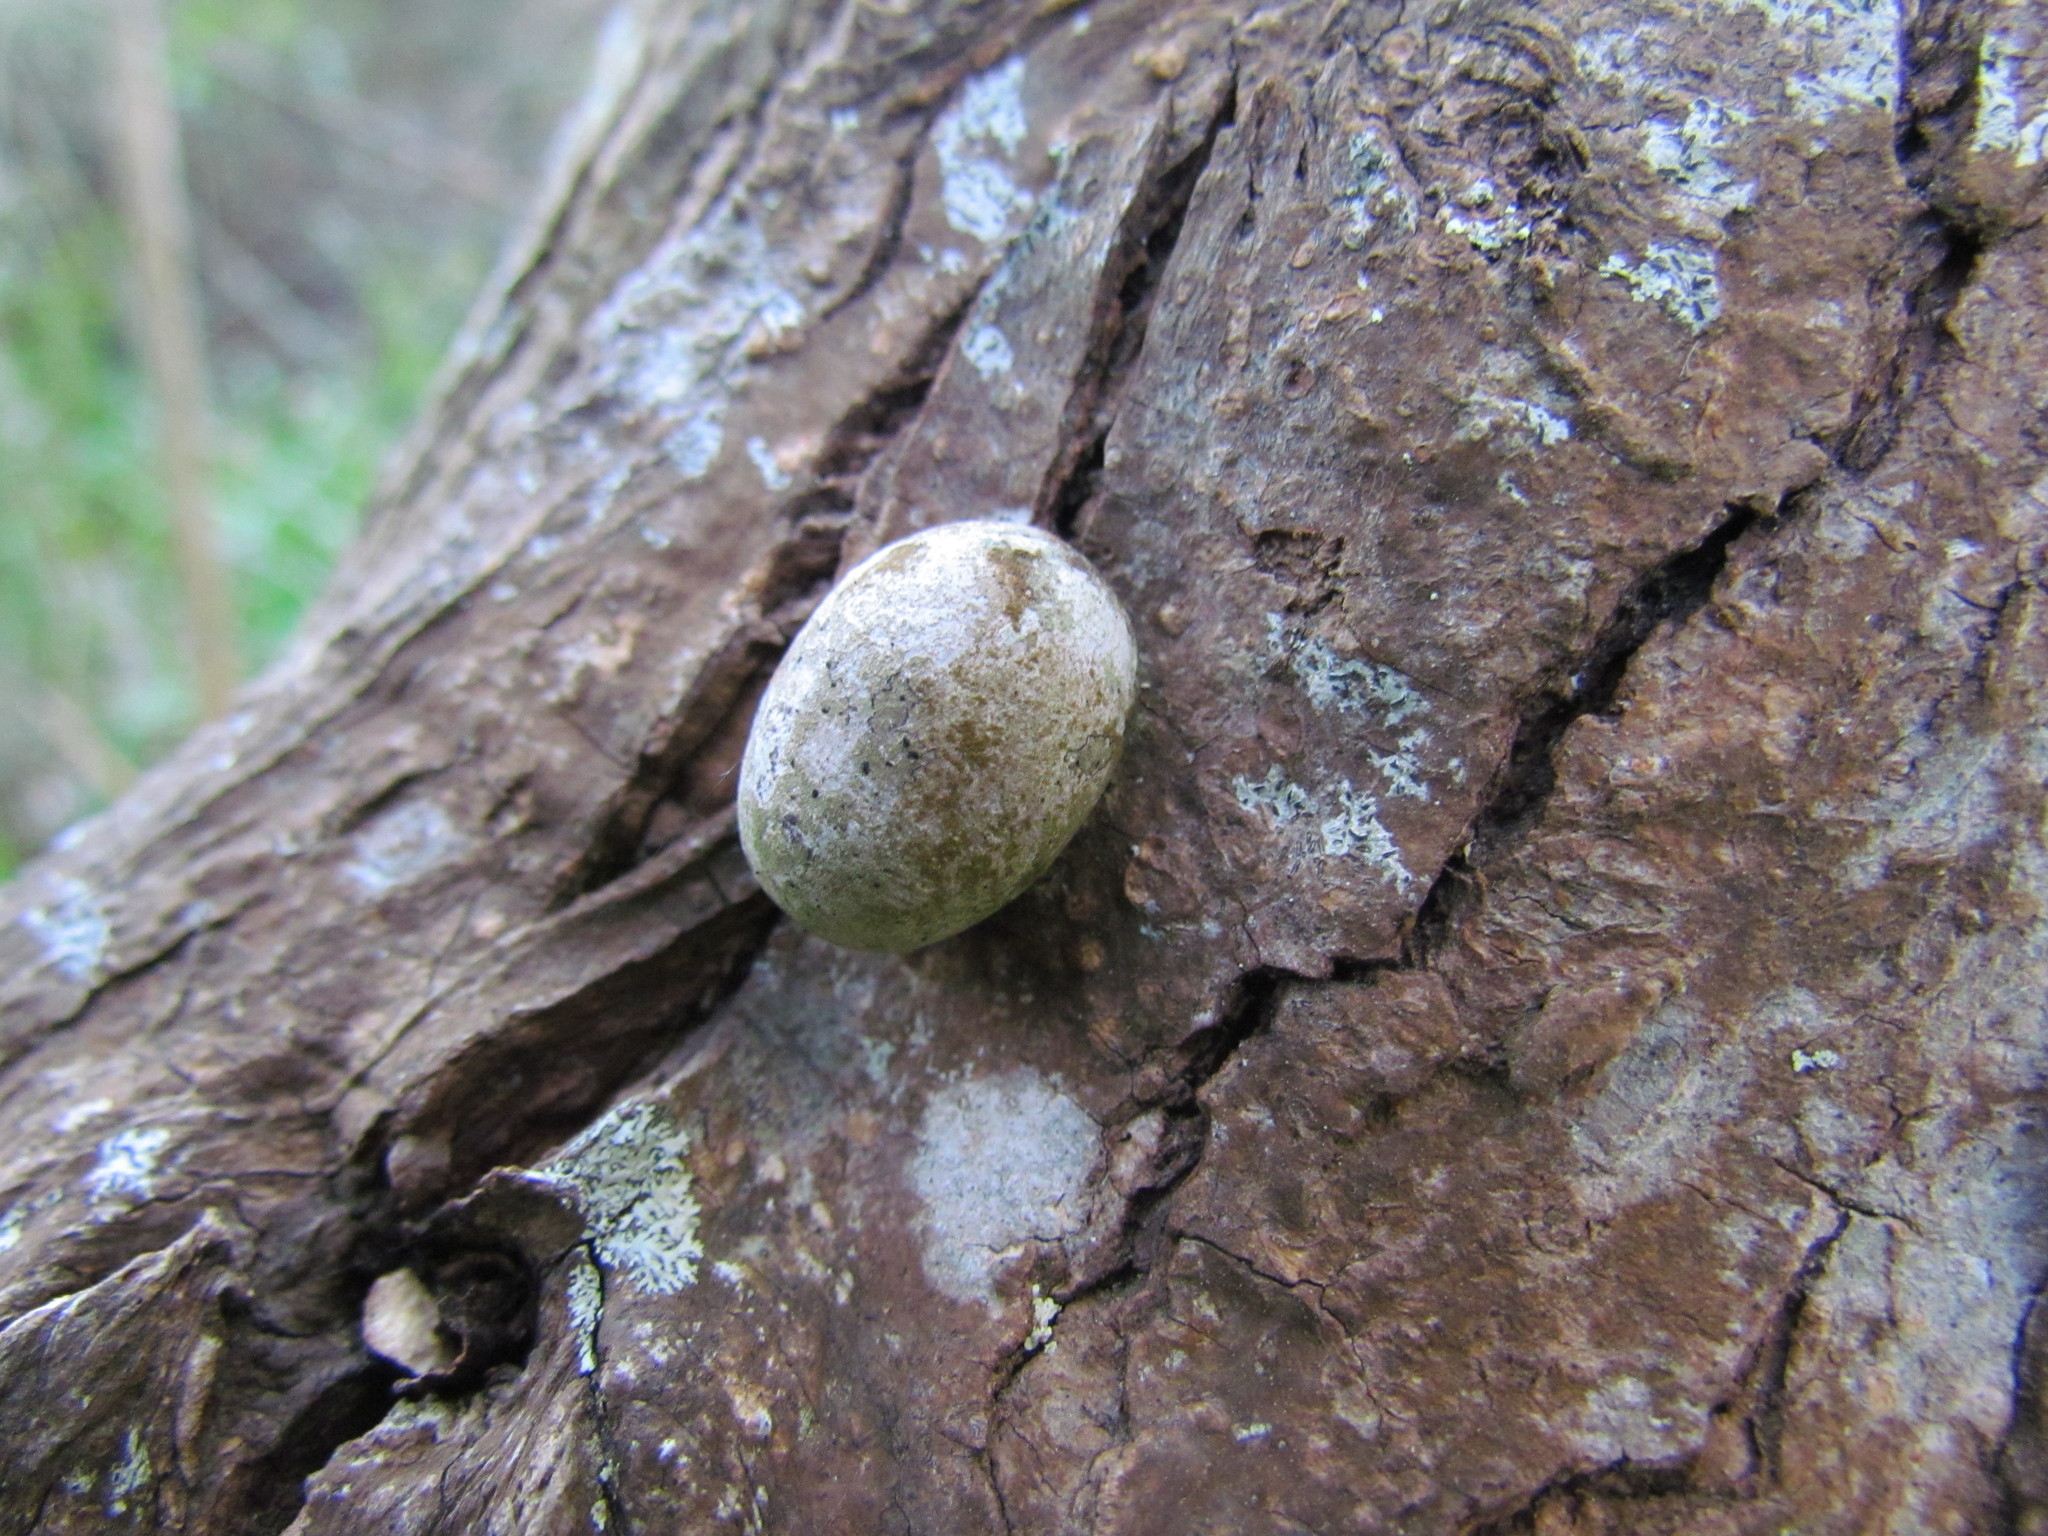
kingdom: Animalia
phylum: Arthropoda
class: Insecta
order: Lepidoptera
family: Limacodidae
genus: Acharia
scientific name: Acharia
